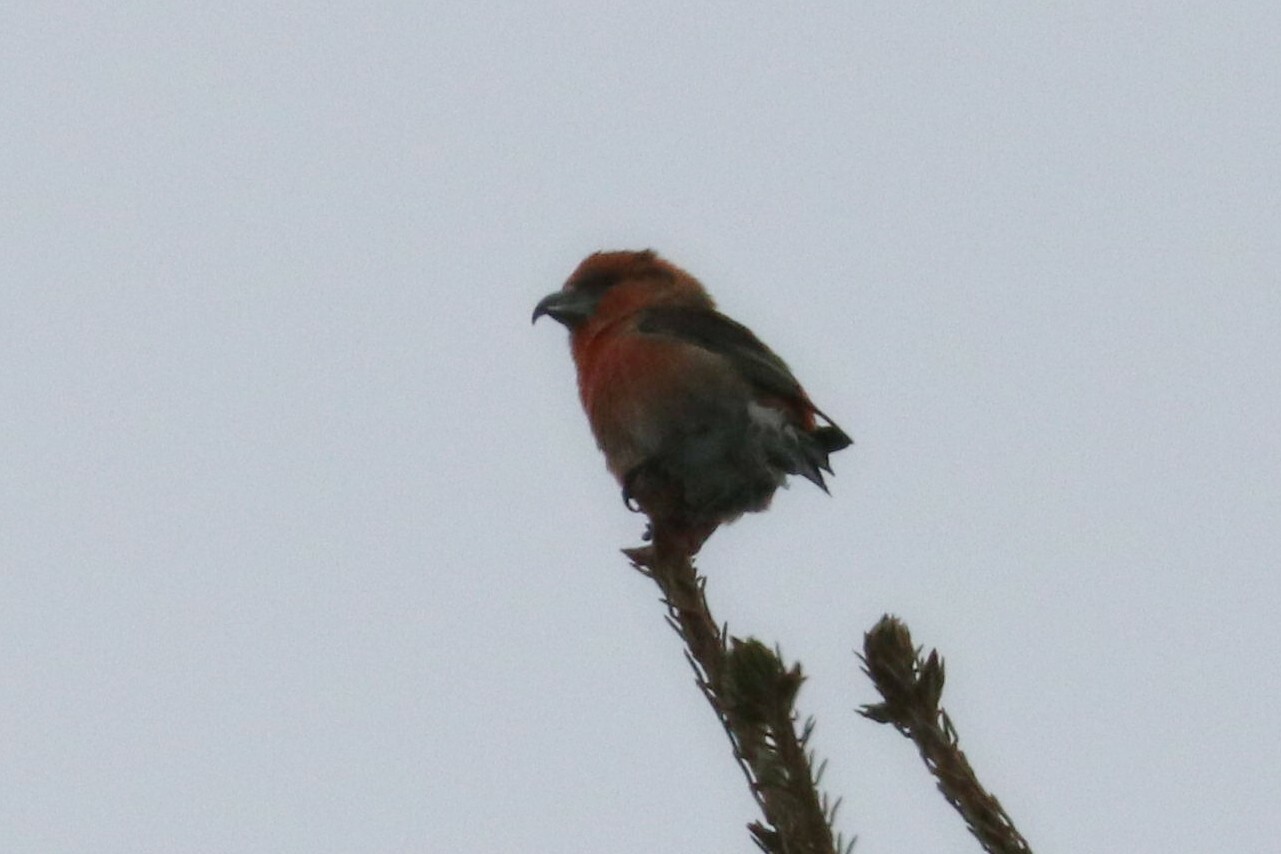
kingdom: Animalia
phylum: Chordata
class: Aves
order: Passeriformes
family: Fringillidae
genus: Loxia
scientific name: Loxia curvirostra
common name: Red crossbill
